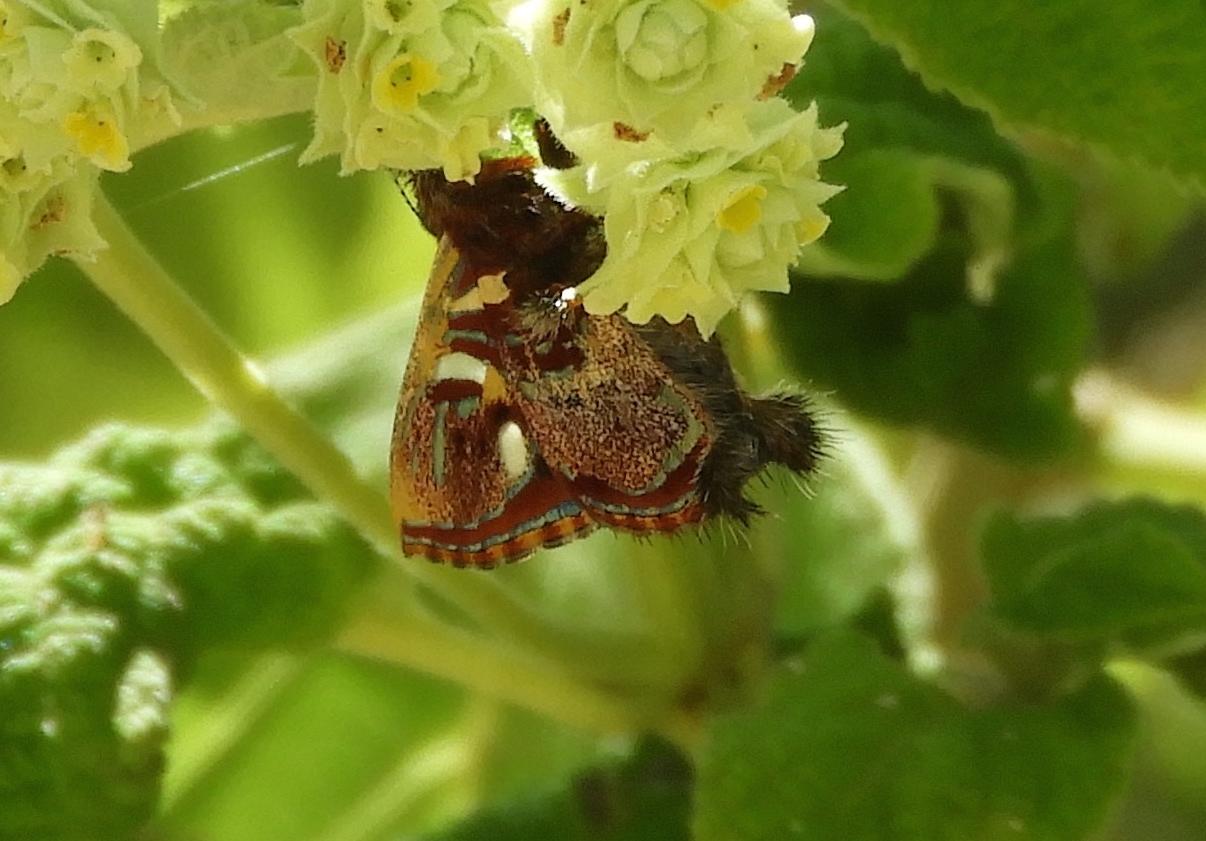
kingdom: Animalia
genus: Anteros
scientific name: Anteros carausius
